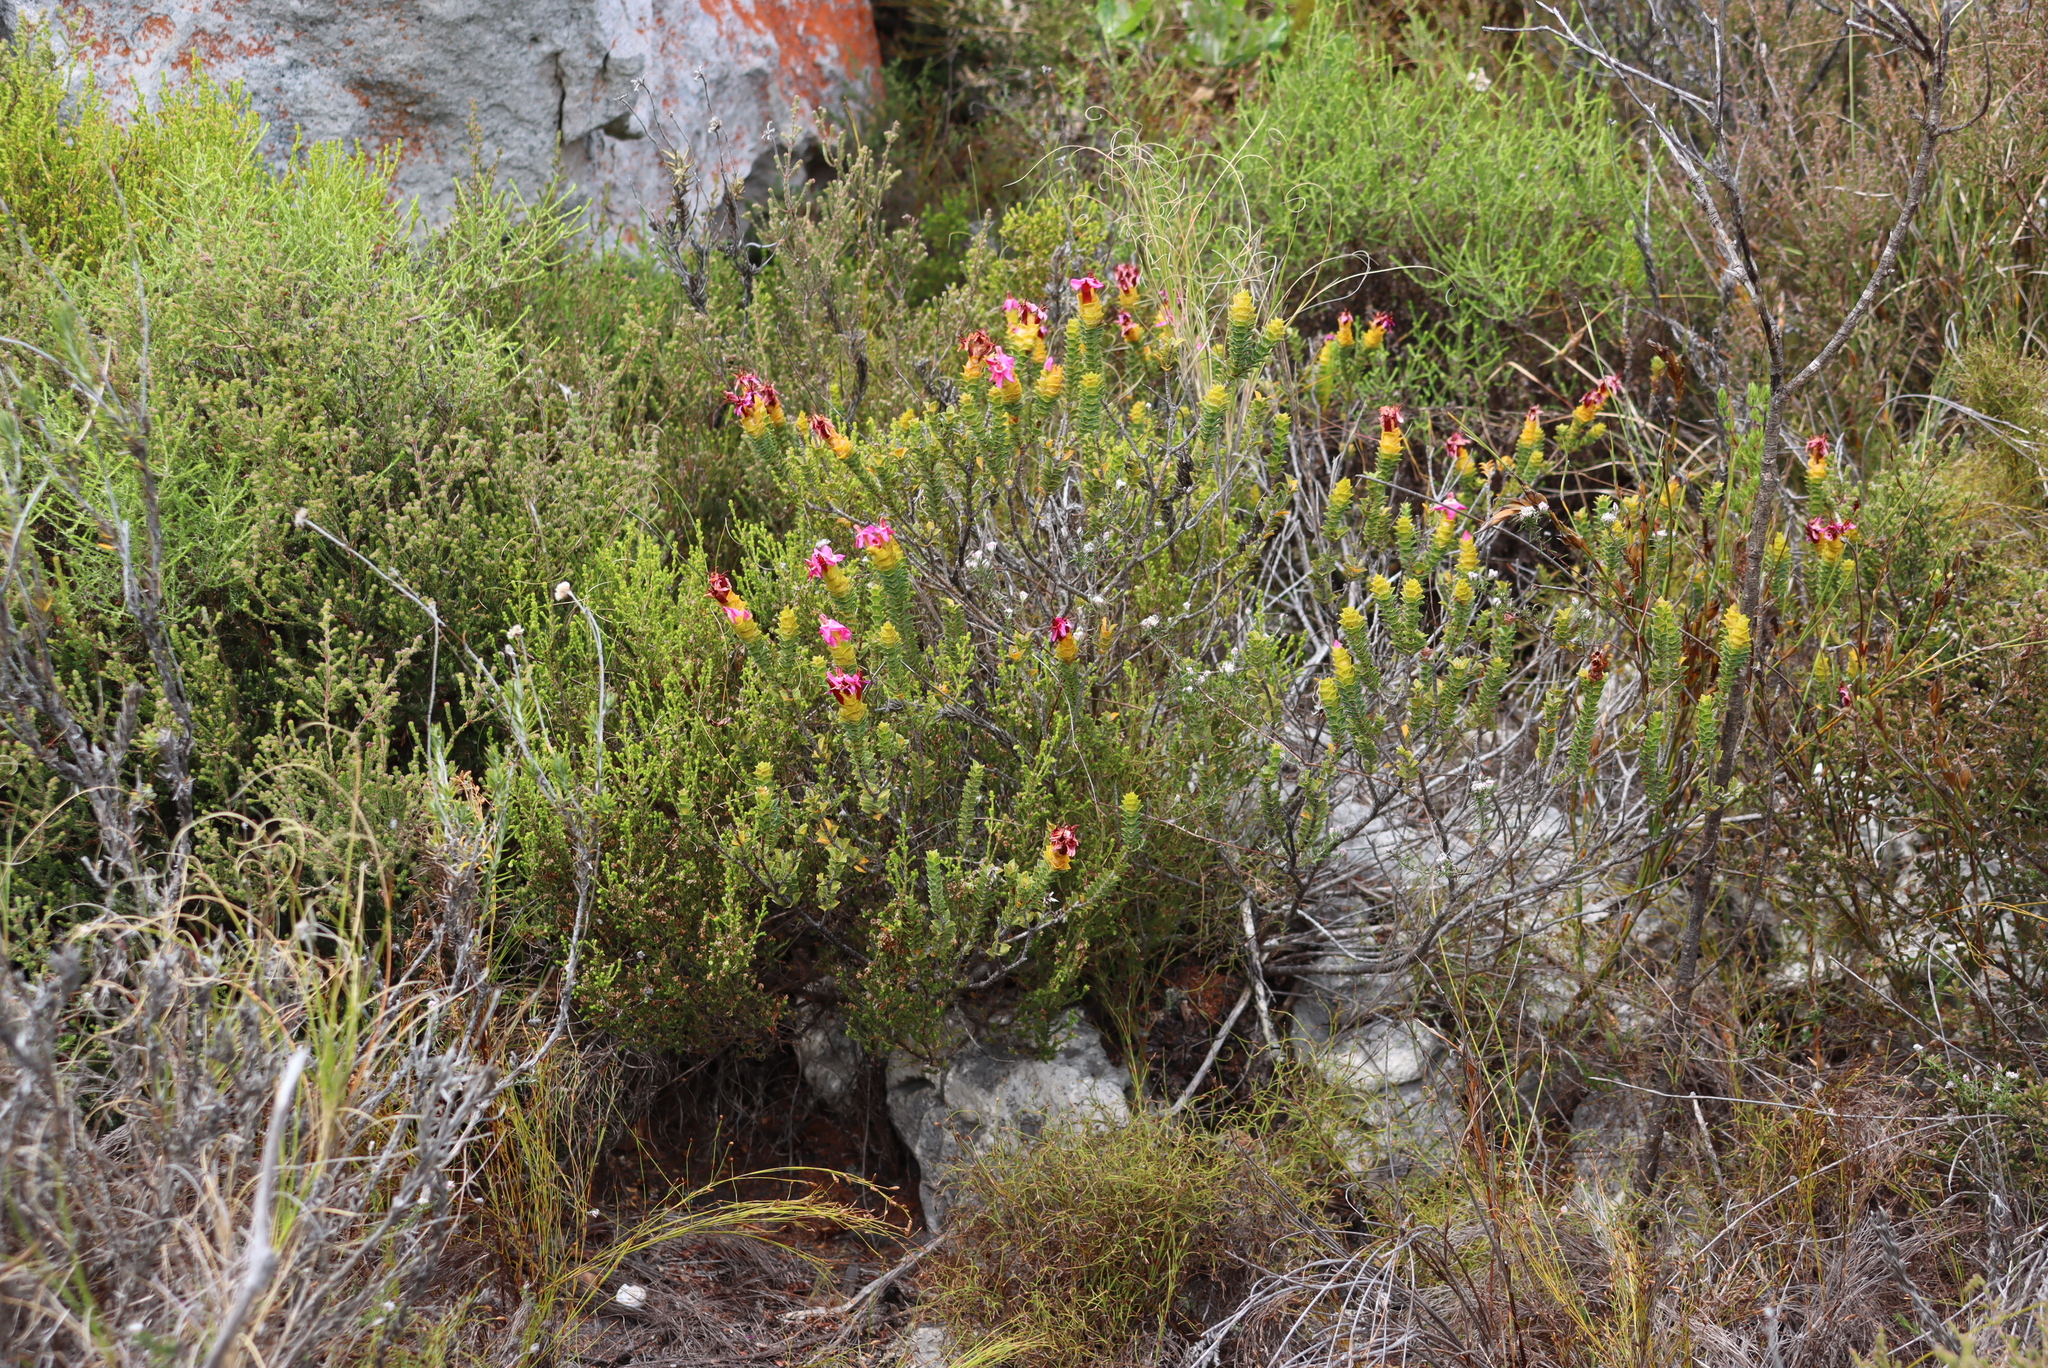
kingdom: Plantae
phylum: Tracheophyta
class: Magnoliopsida
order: Myrtales
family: Penaeaceae
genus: Saltera
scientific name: Saltera sarcocolla
